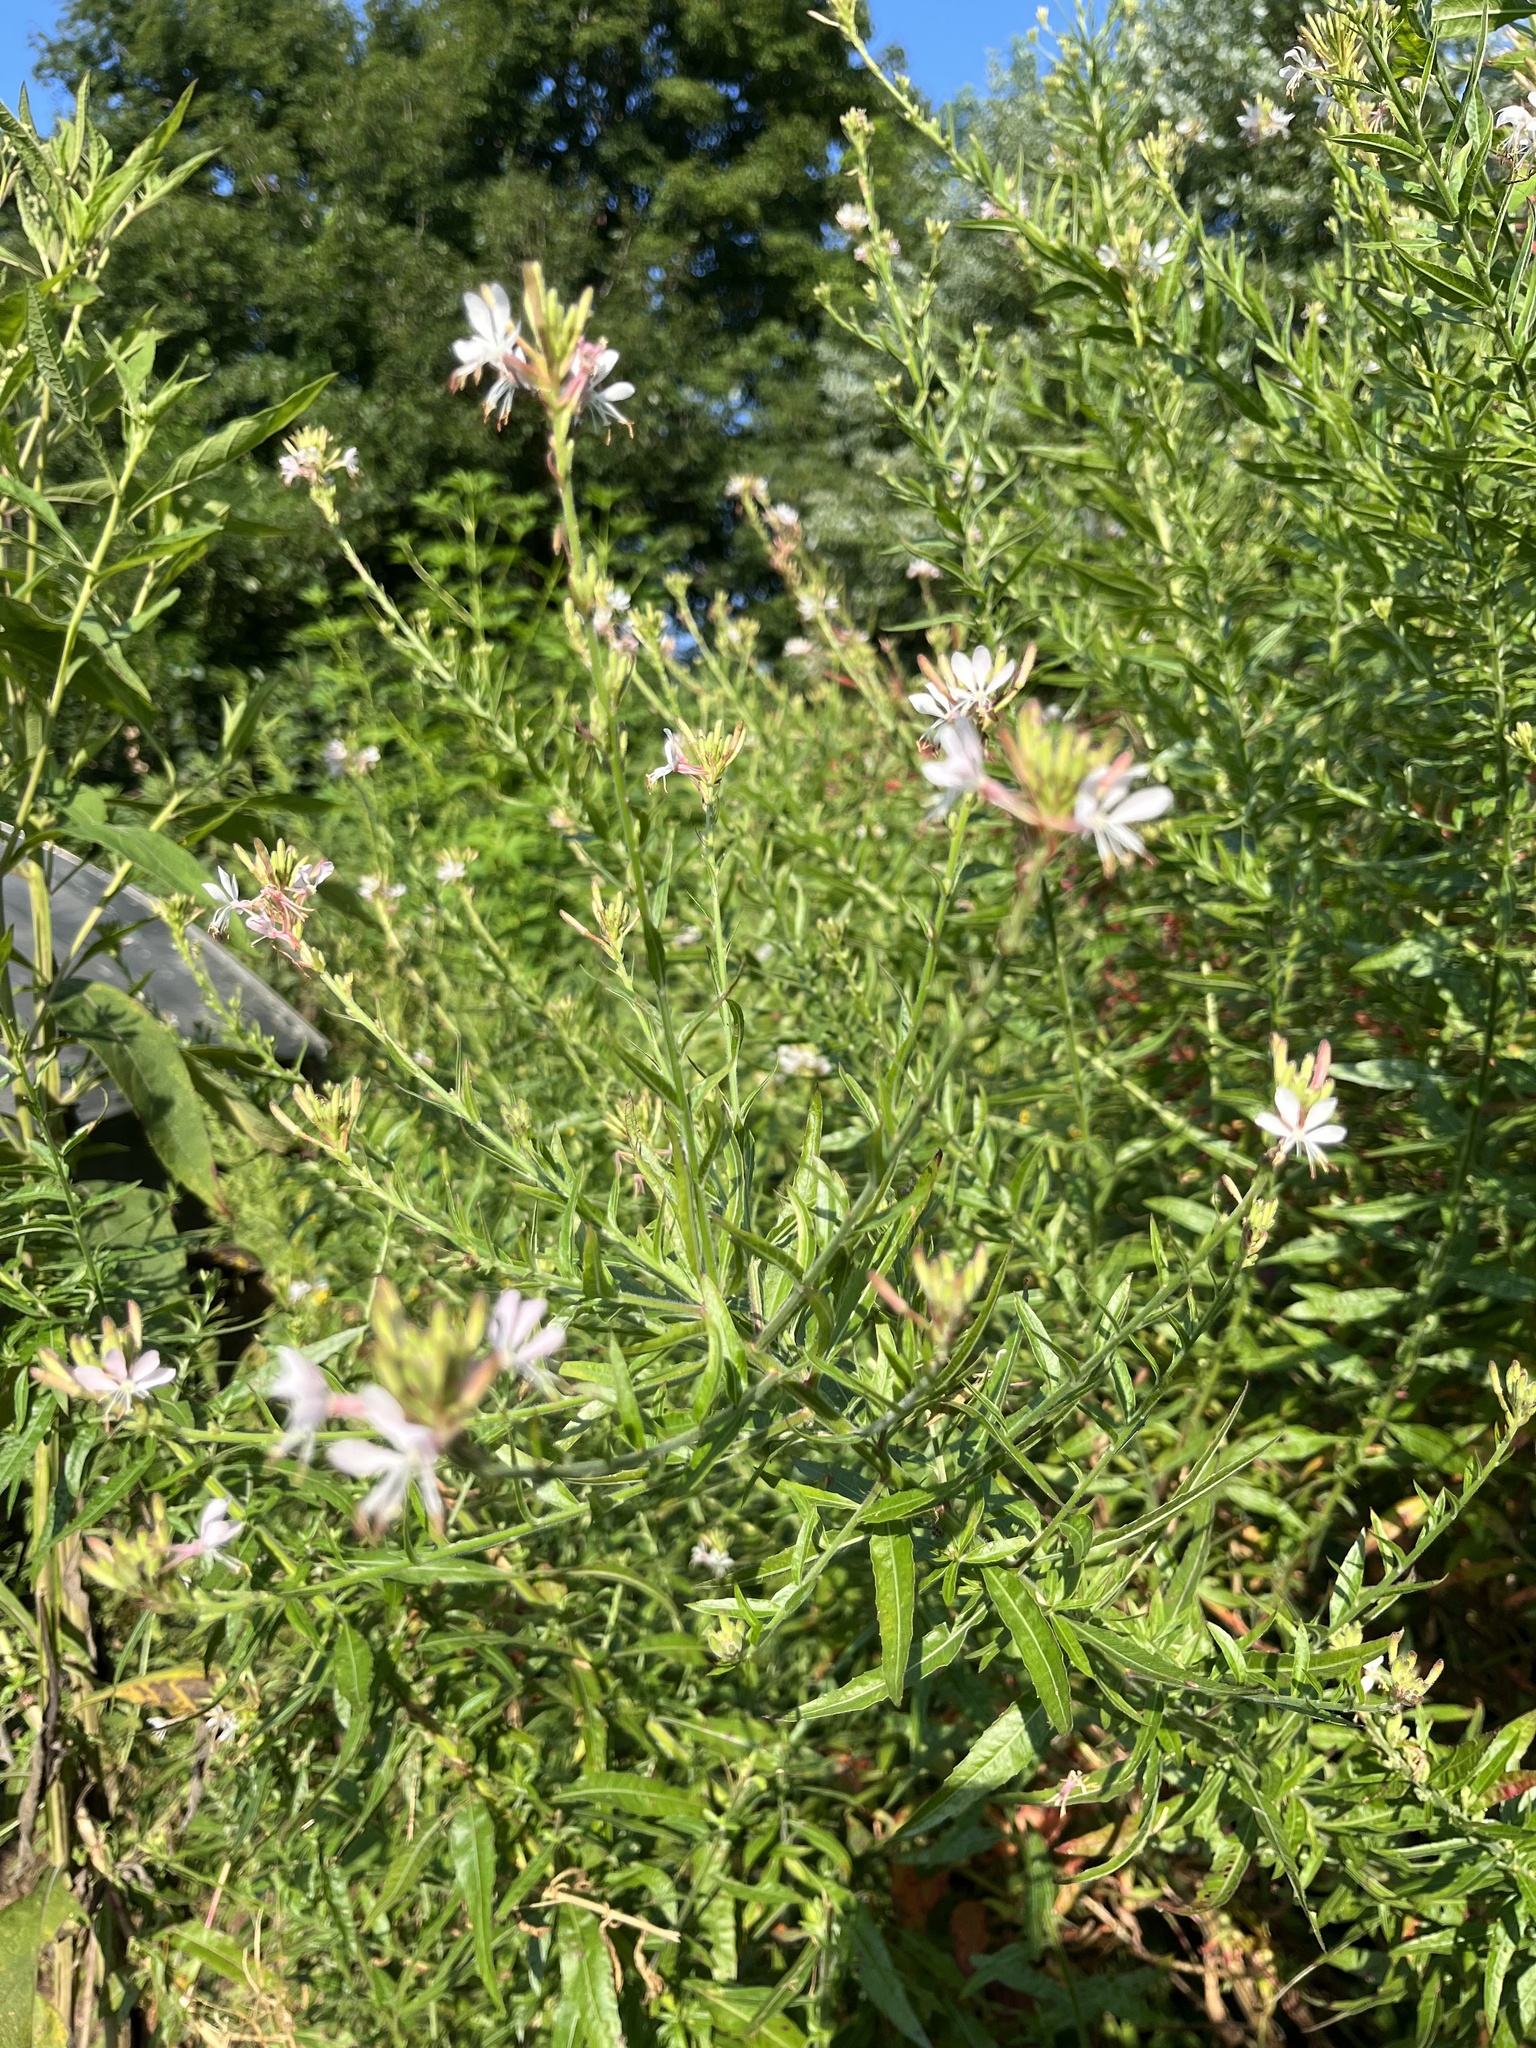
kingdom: Plantae
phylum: Tracheophyta
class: Magnoliopsida
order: Myrtales
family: Onagraceae
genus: Oenothera
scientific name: Oenothera gaura
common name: Biennial beeblossom
